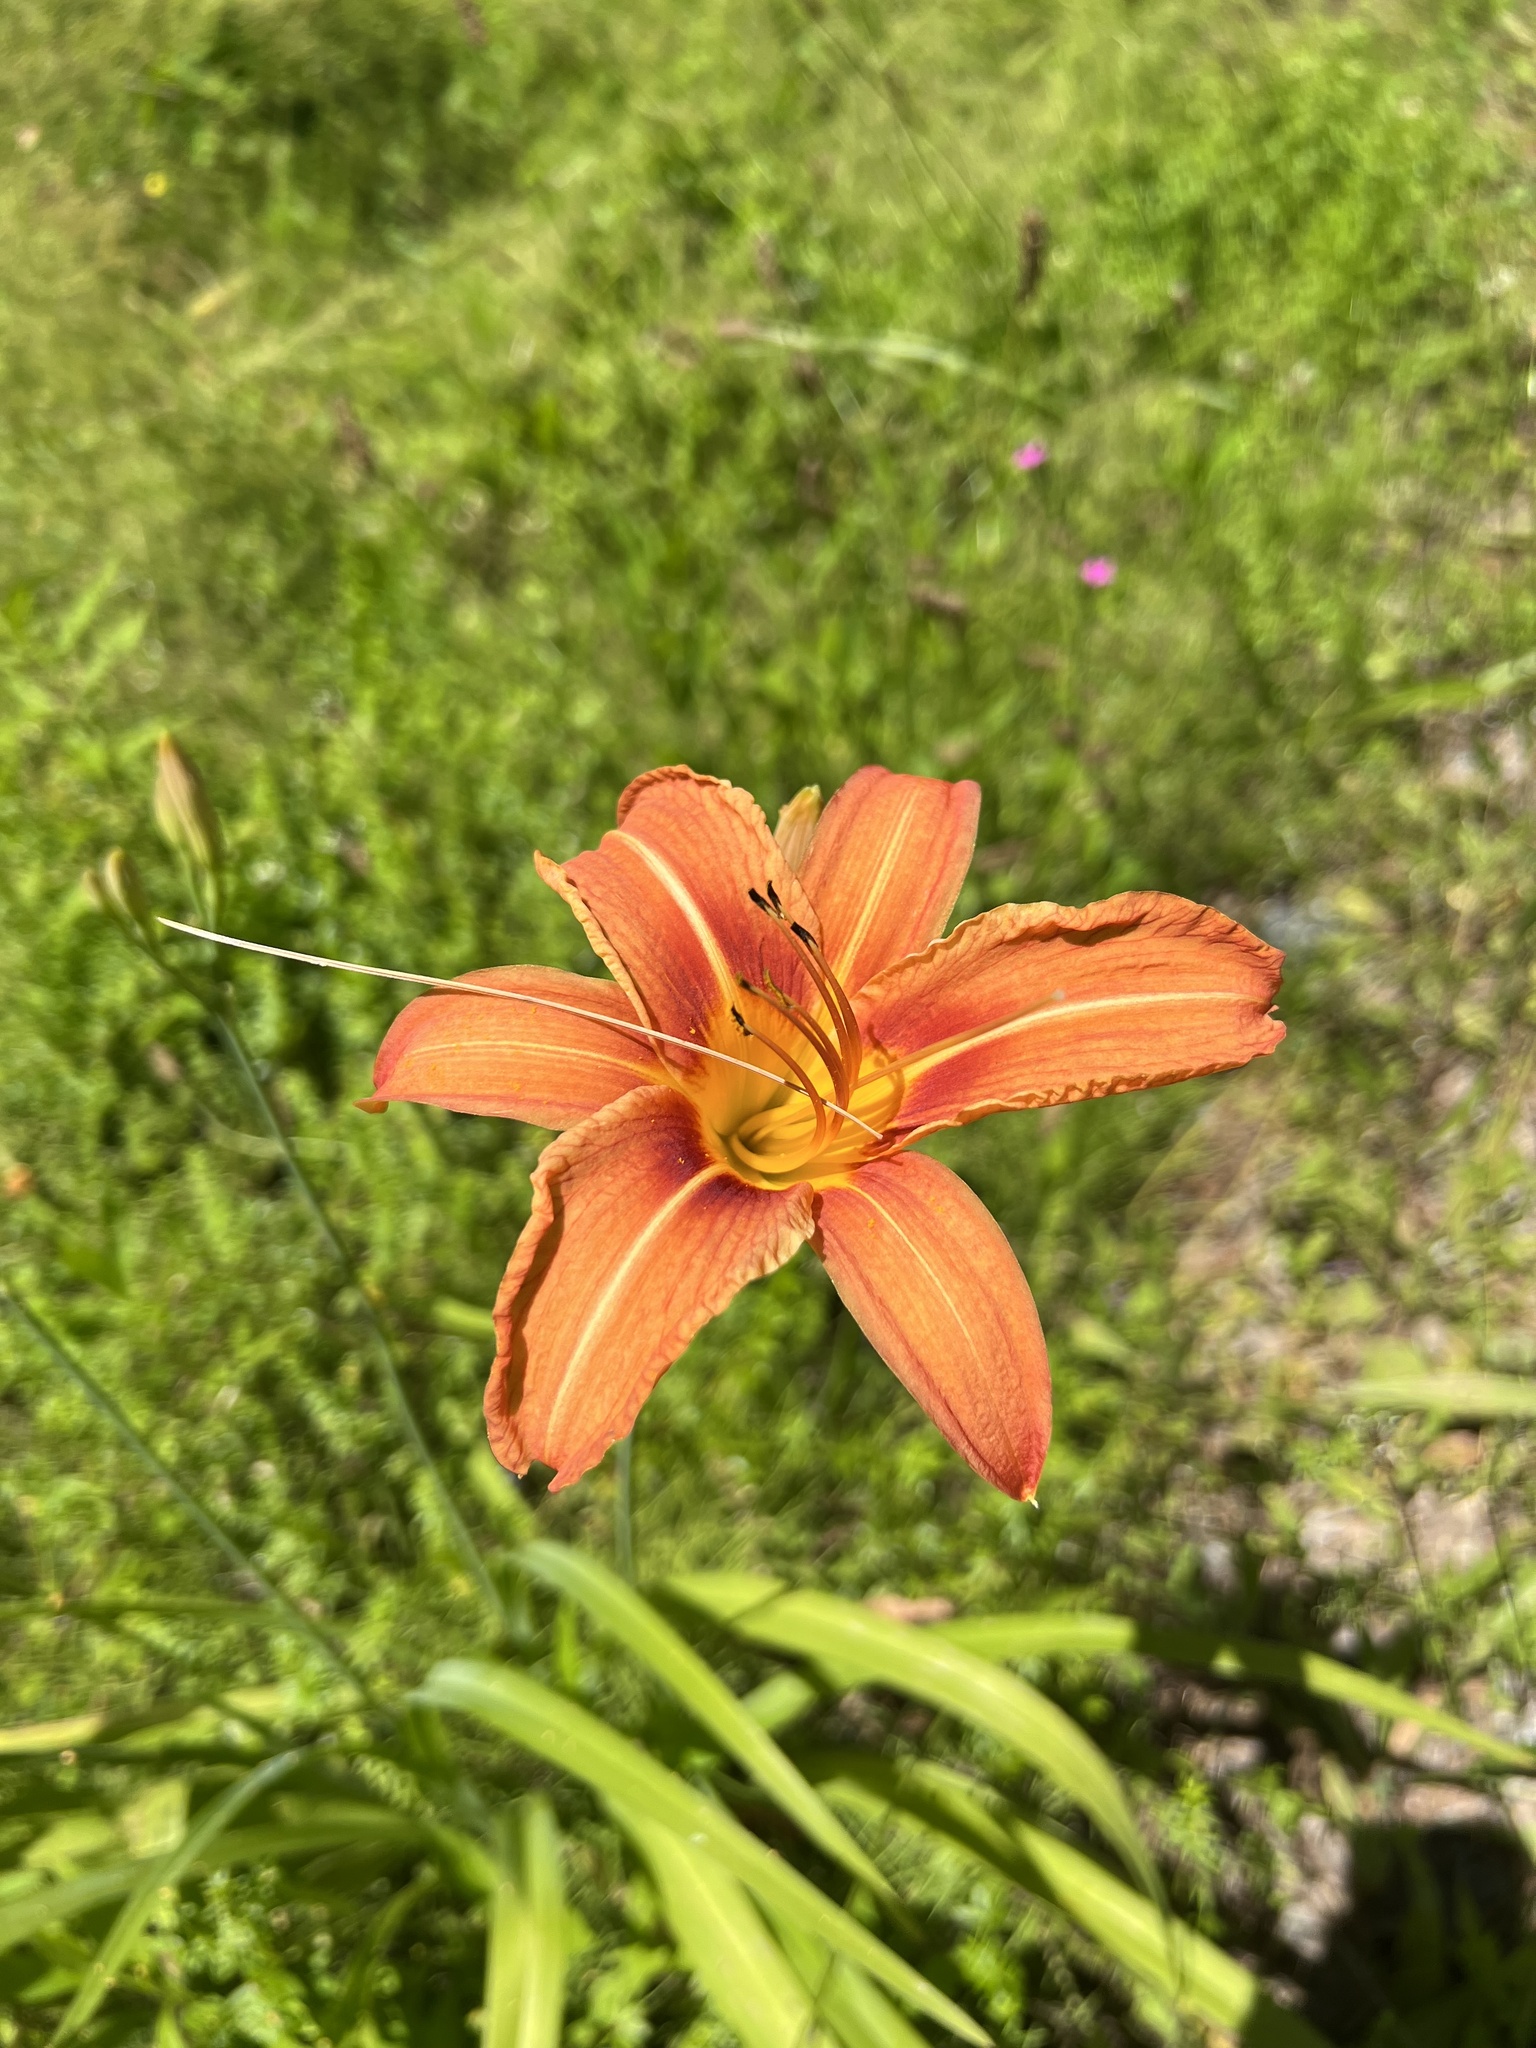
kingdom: Plantae
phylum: Tracheophyta
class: Liliopsida
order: Asparagales
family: Asphodelaceae
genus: Hemerocallis
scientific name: Hemerocallis fulva
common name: Orange day-lily
